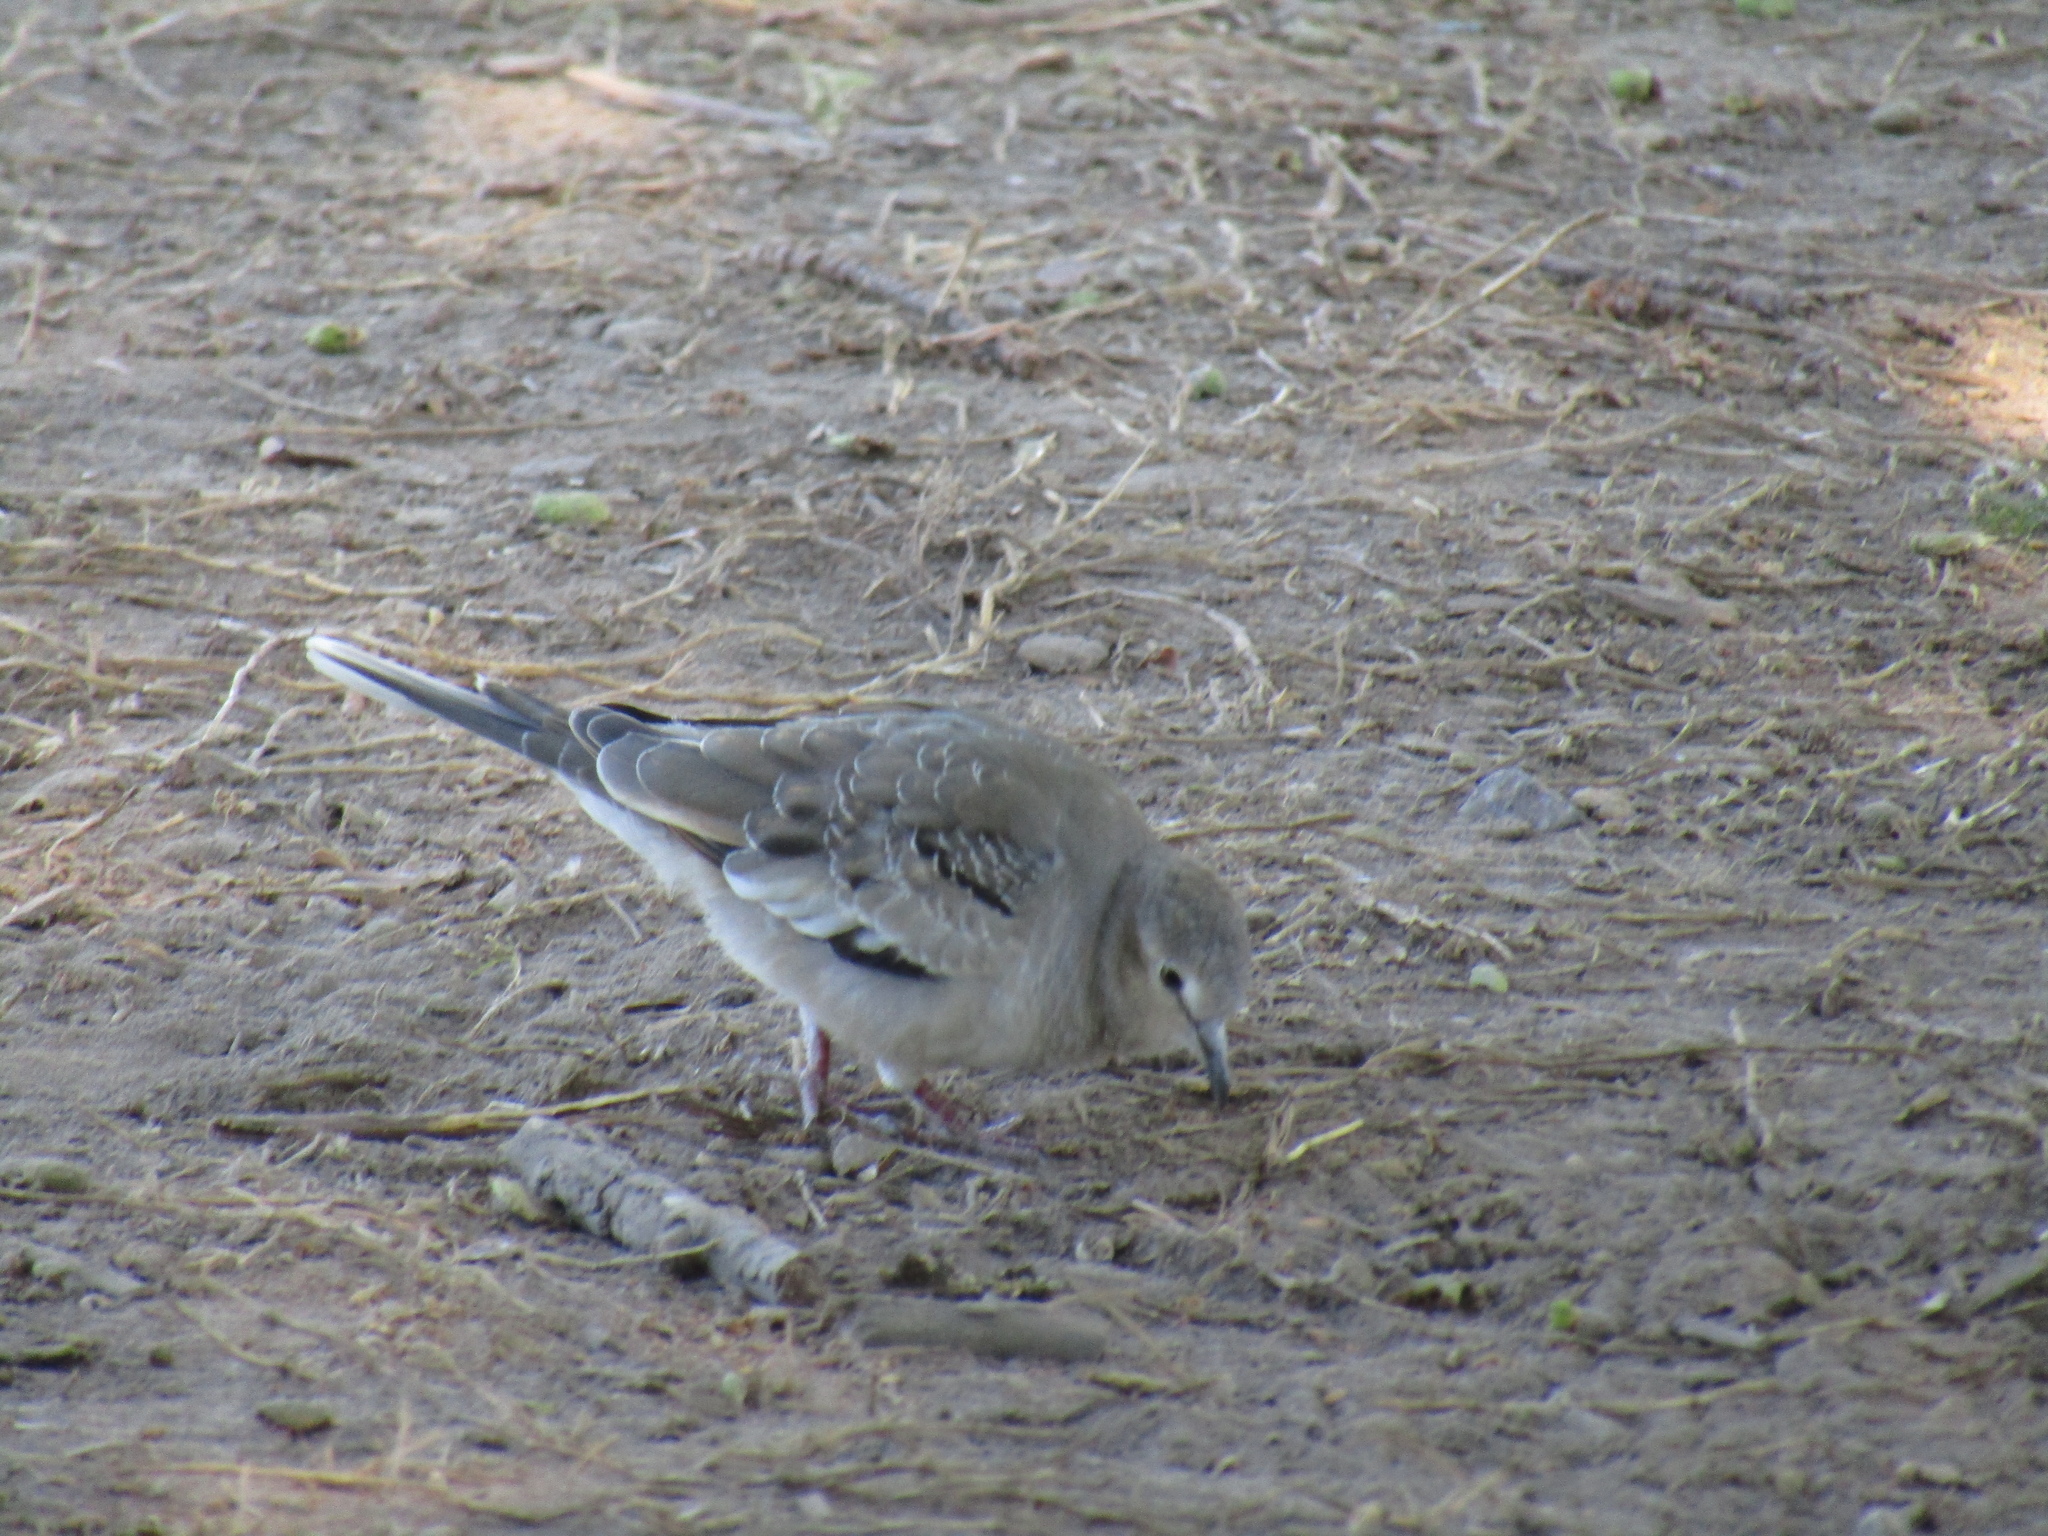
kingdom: Animalia
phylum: Chordata
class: Aves
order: Columbiformes
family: Columbidae
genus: Columbina
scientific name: Columbina picui
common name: Picui ground dove
